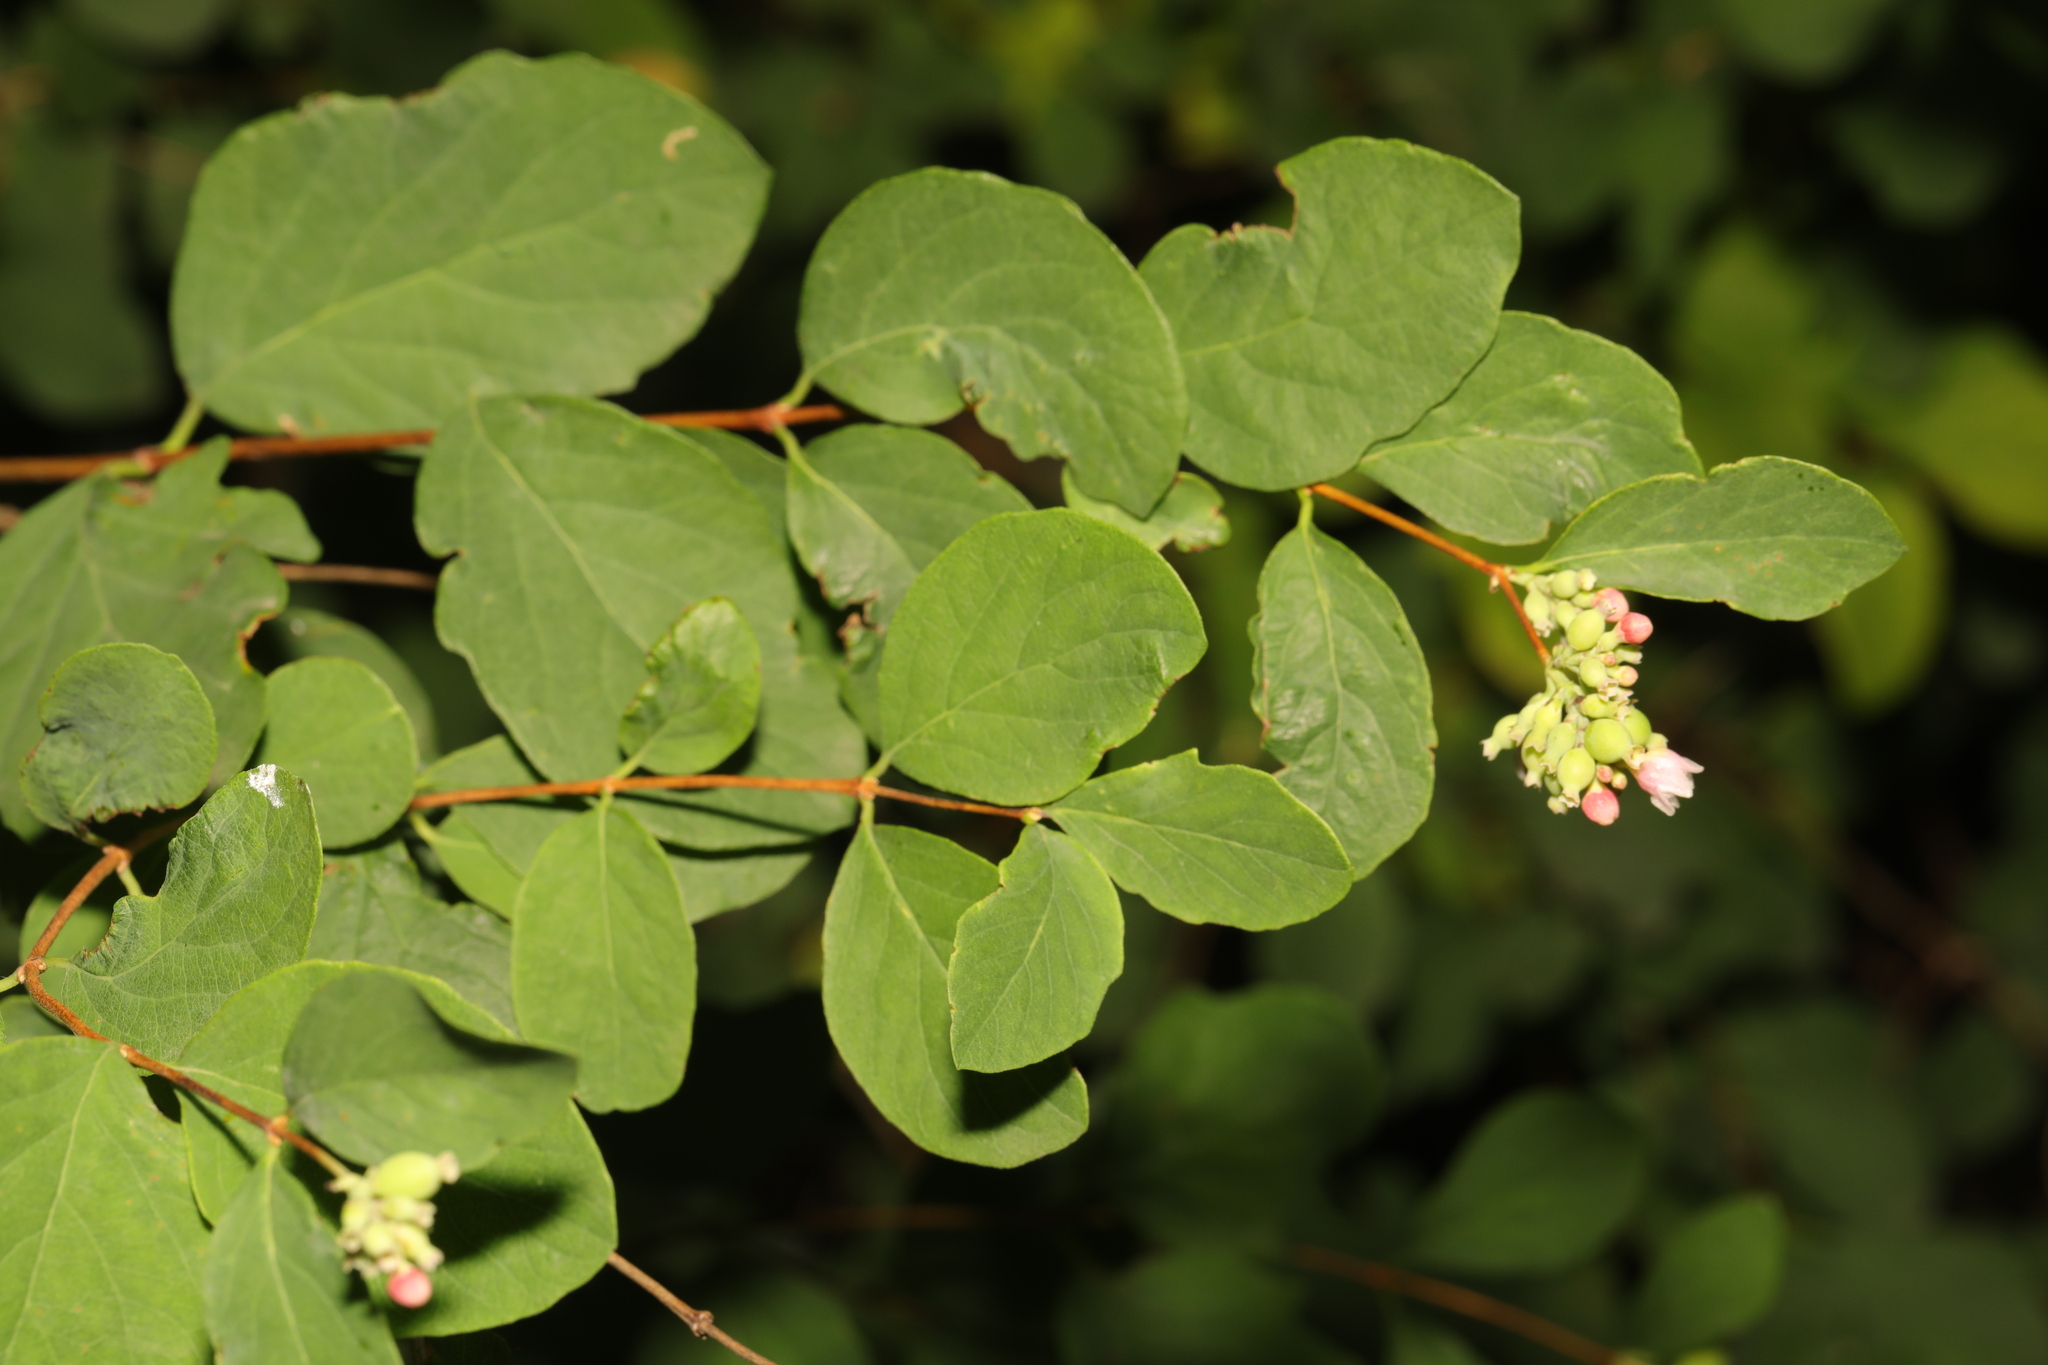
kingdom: Plantae
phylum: Tracheophyta
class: Magnoliopsida
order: Dipsacales
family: Caprifoliaceae
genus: Symphoricarpos
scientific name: Symphoricarpos albus
